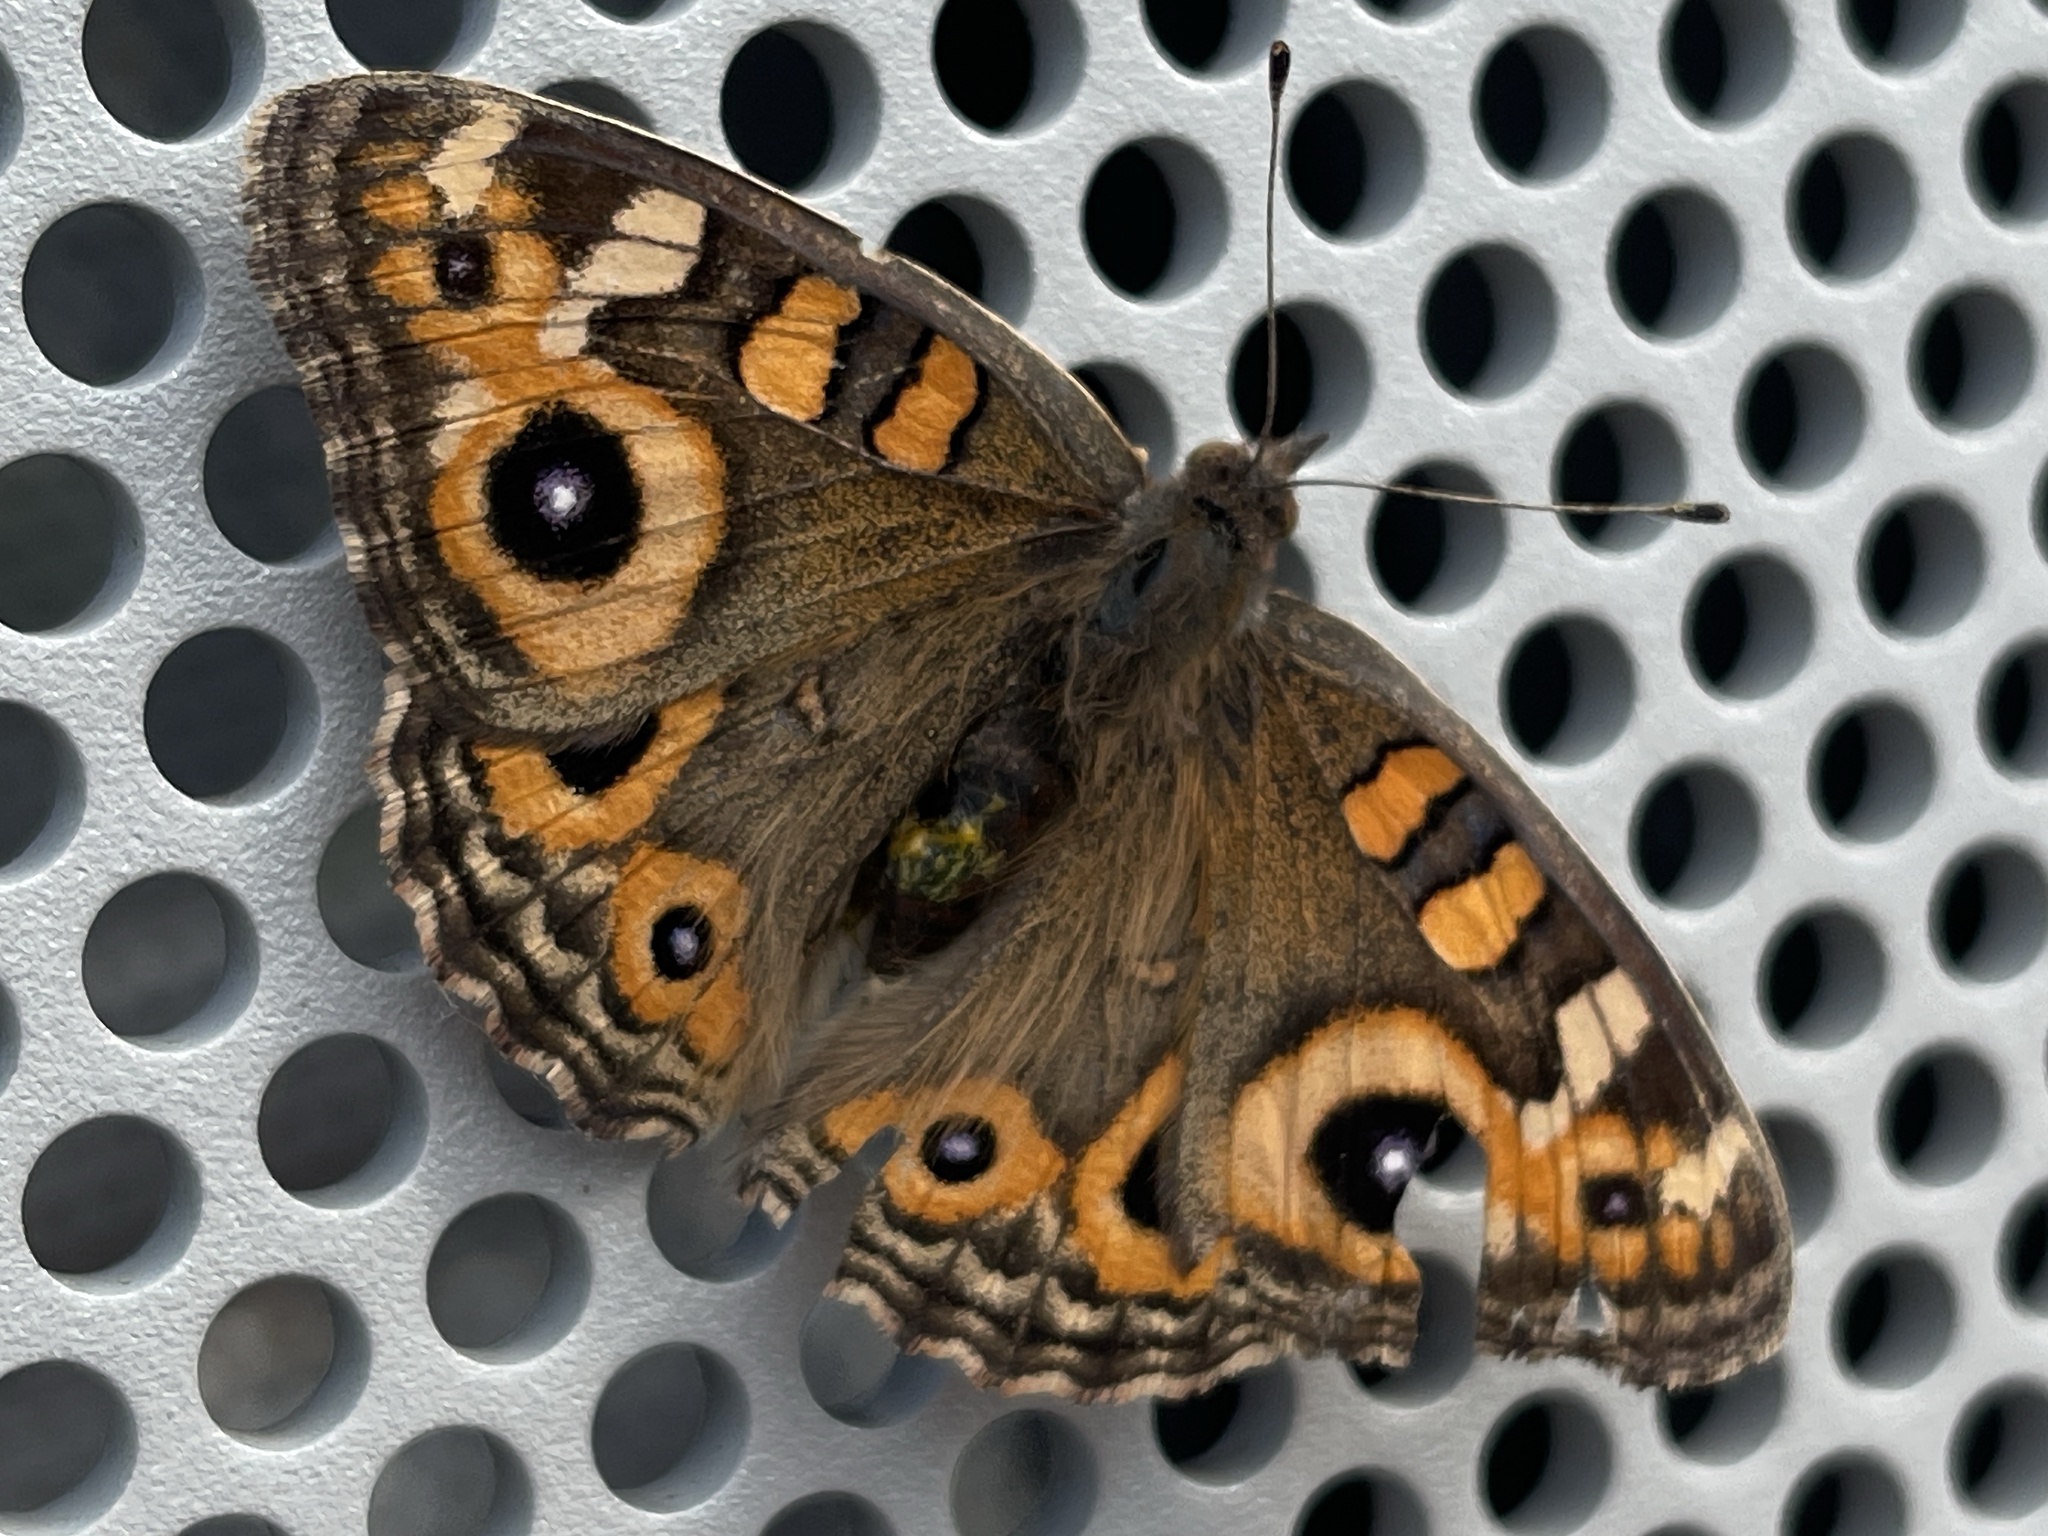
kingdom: Animalia
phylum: Arthropoda
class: Insecta
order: Lepidoptera
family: Nymphalidae
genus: Junonia
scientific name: Junonia villida
